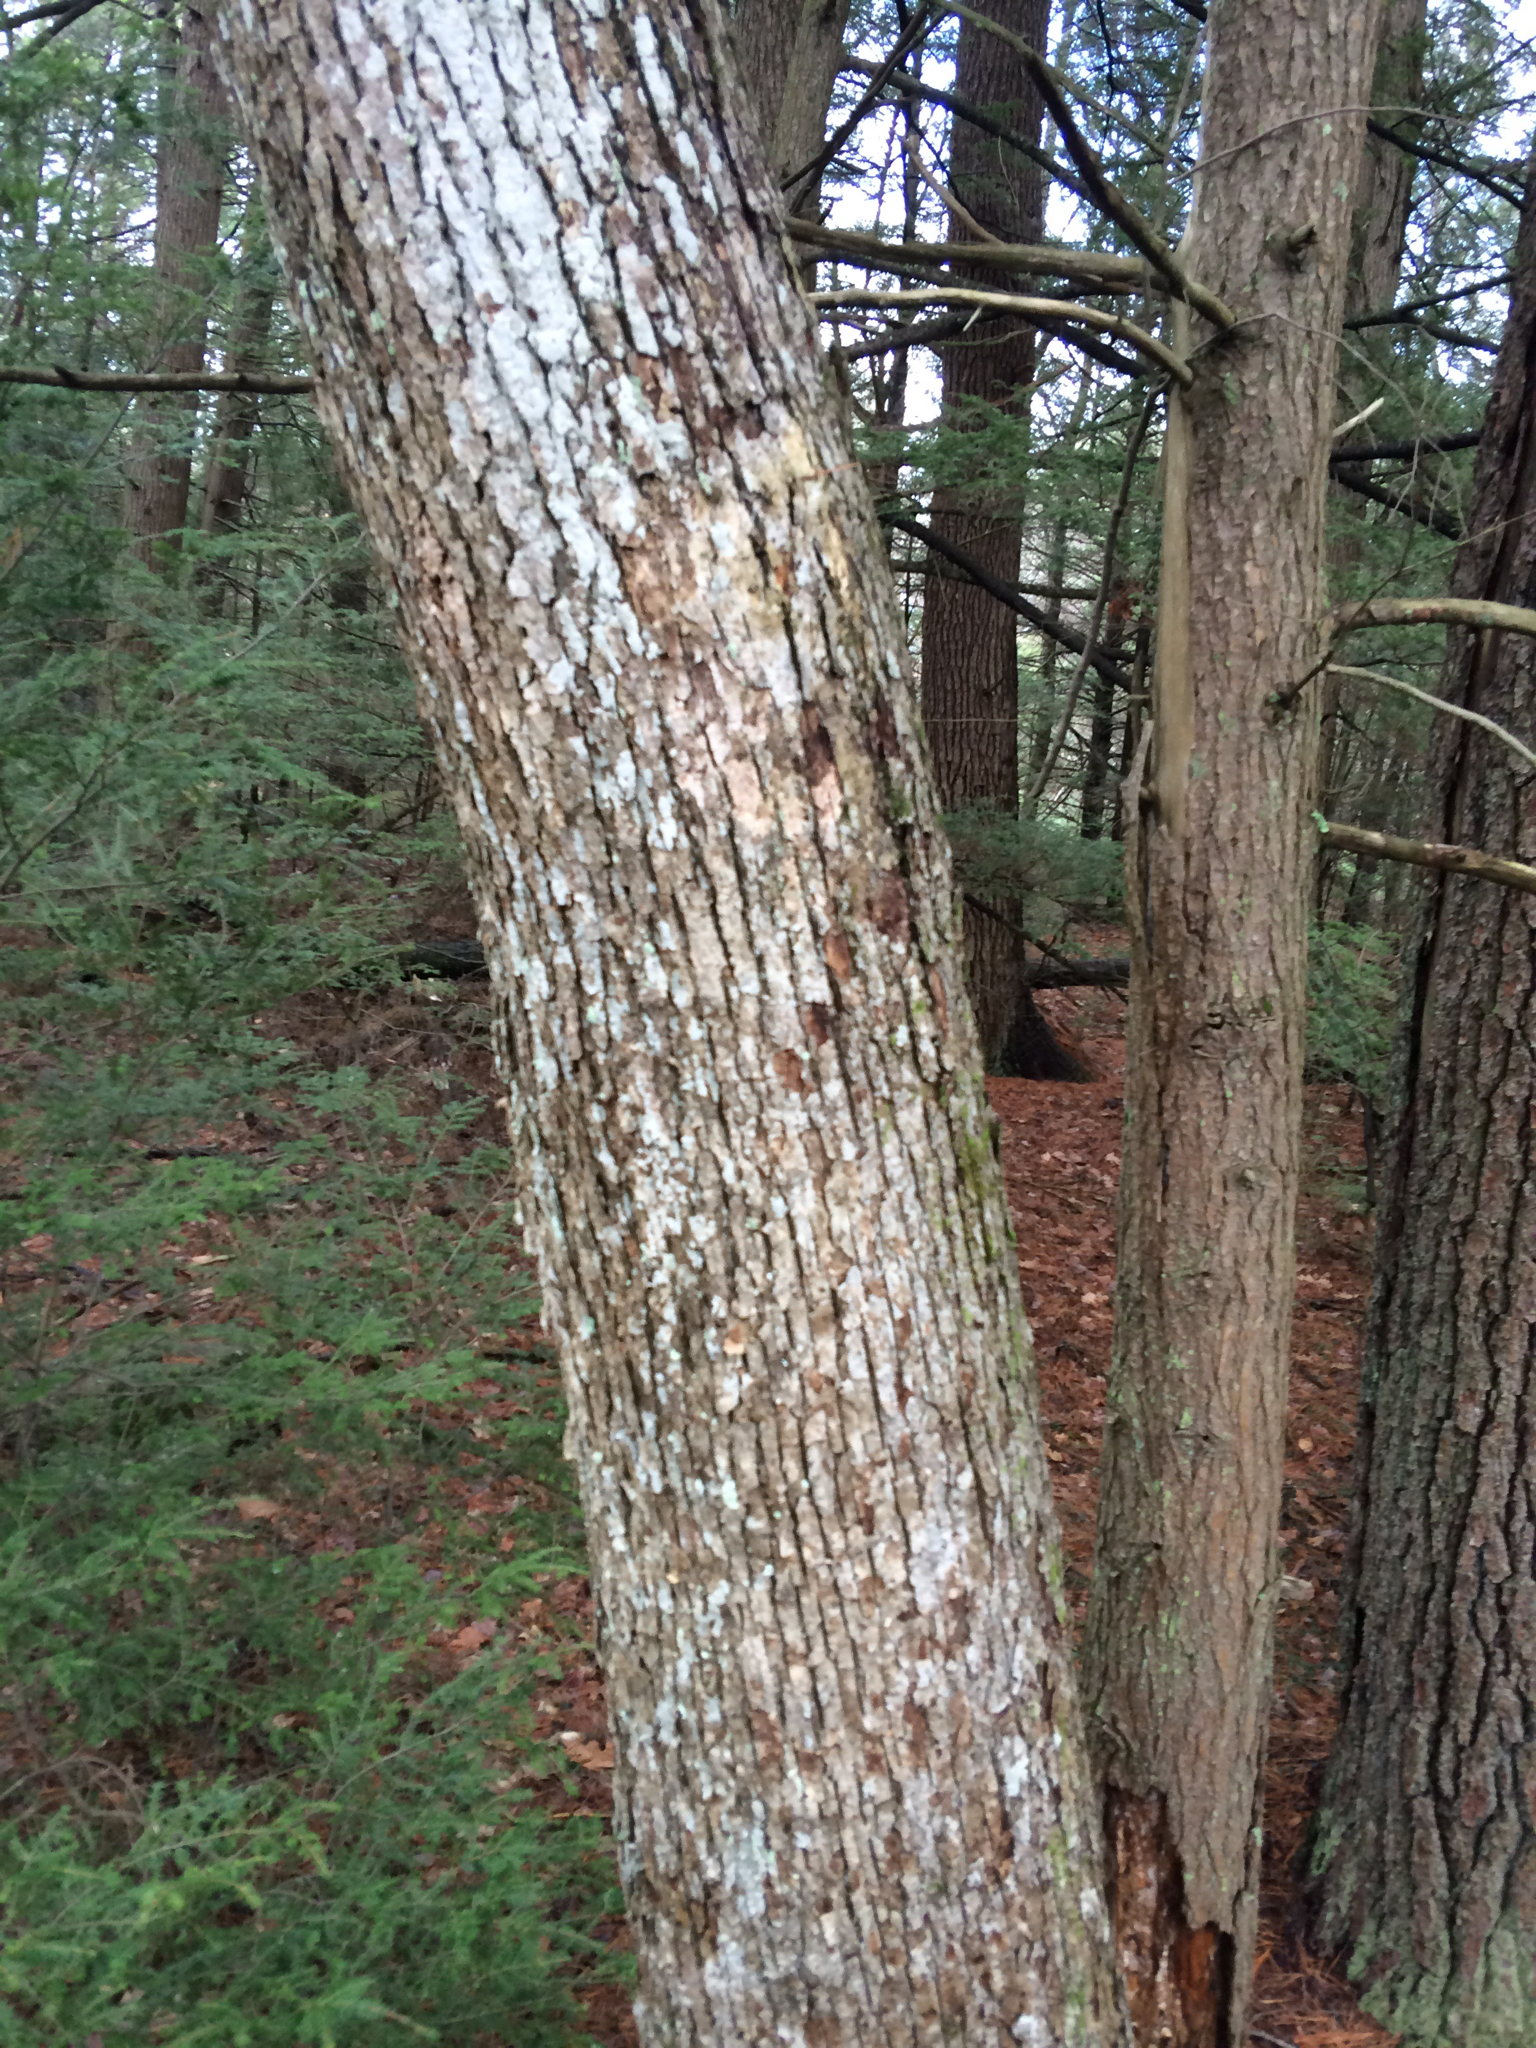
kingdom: Plantae
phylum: Tracheophyta
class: Magnoliopsida
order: Fagales
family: Fagaceae
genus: Quercus
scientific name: Quercus alba
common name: White oak
